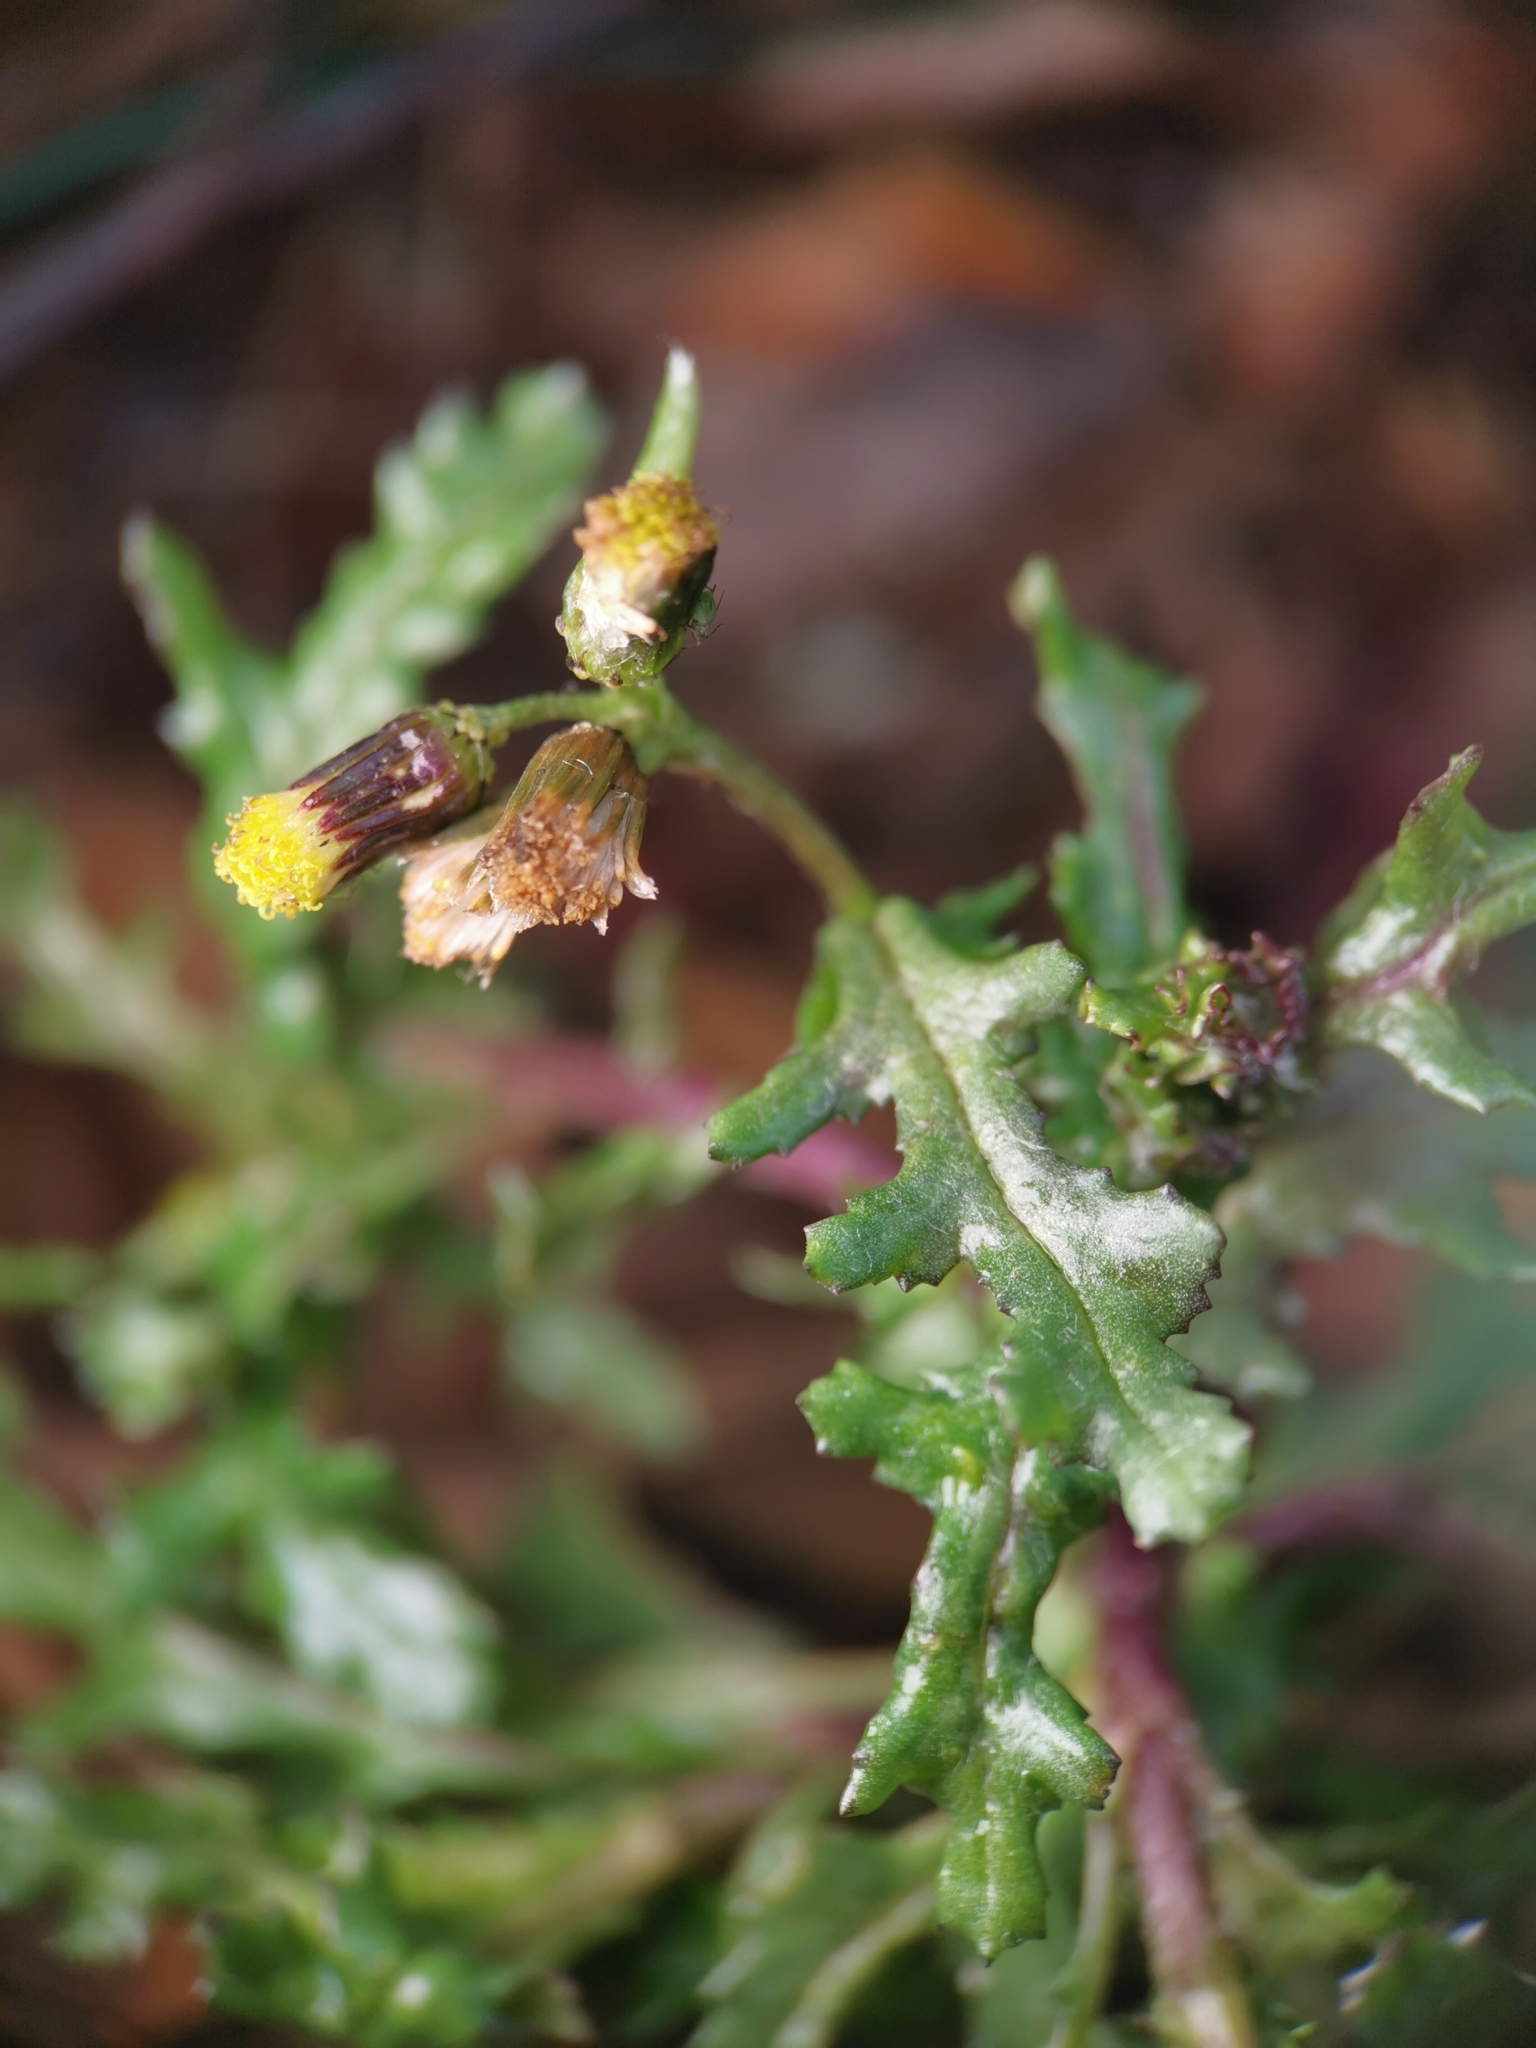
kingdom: Plantae
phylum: Tracheophyta
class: Magnoliopsida
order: Asterales
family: Asteraceae
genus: Senecio
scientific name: Senecio vulgaris
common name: Old-man-in-the-spring
